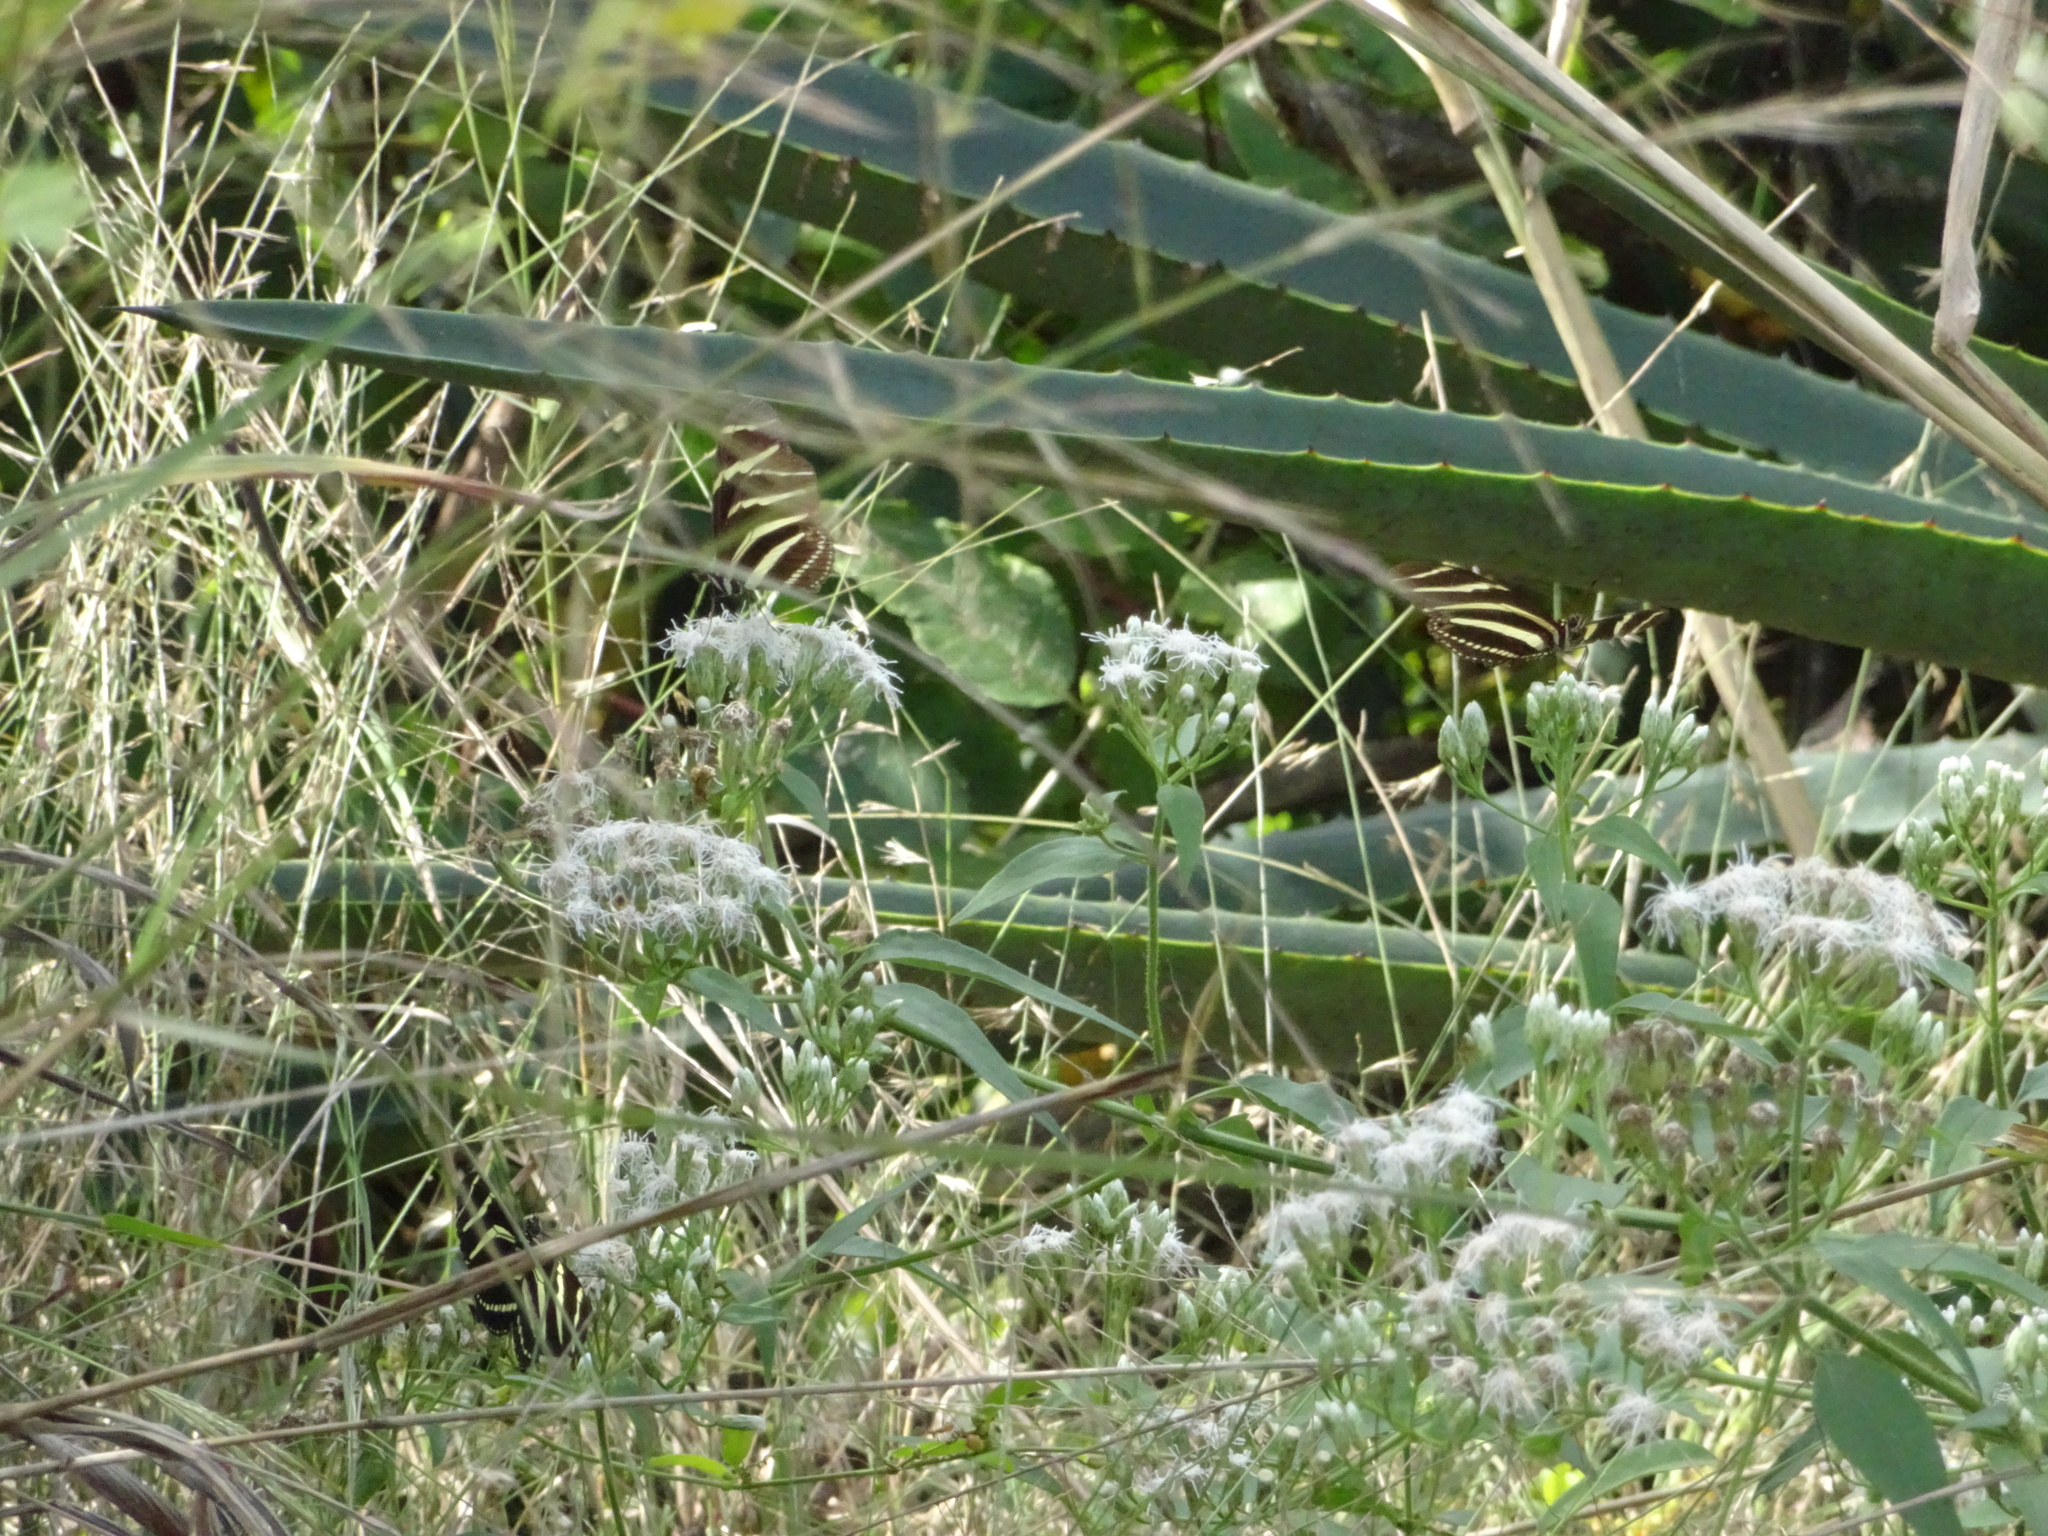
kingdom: Animalia
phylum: Arthropoda
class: Insecta
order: Lepidoptera
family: Nymphalidae
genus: Heliconius
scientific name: Heliconius charithonia
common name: Zebra long wing
